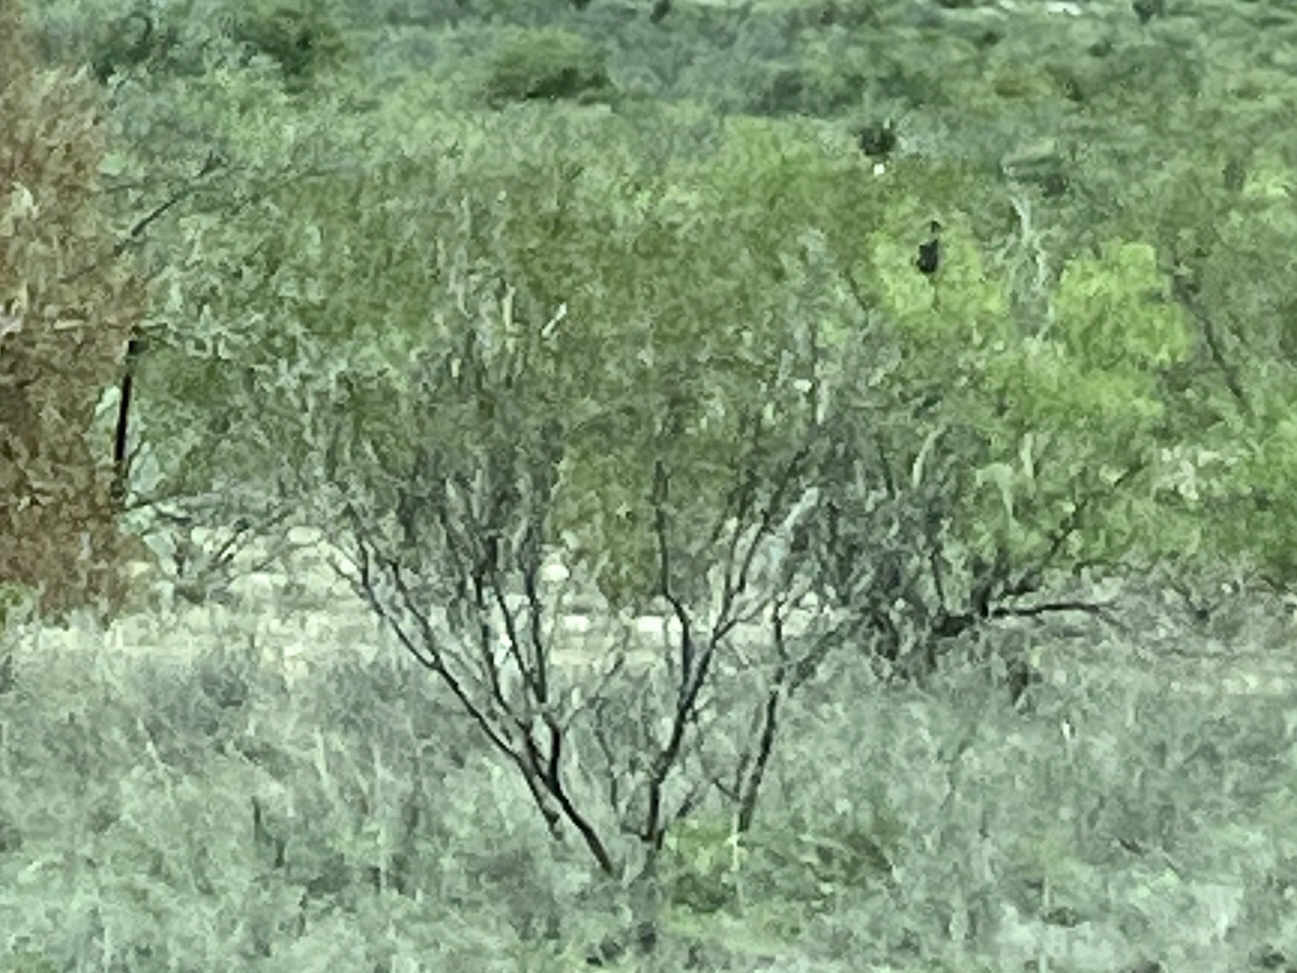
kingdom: Plantae
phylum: Tracheophyta
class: Magnoliopsida
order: Zygophyllales
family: Zygophyllaceae
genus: Larrea
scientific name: Larrea tridentata
